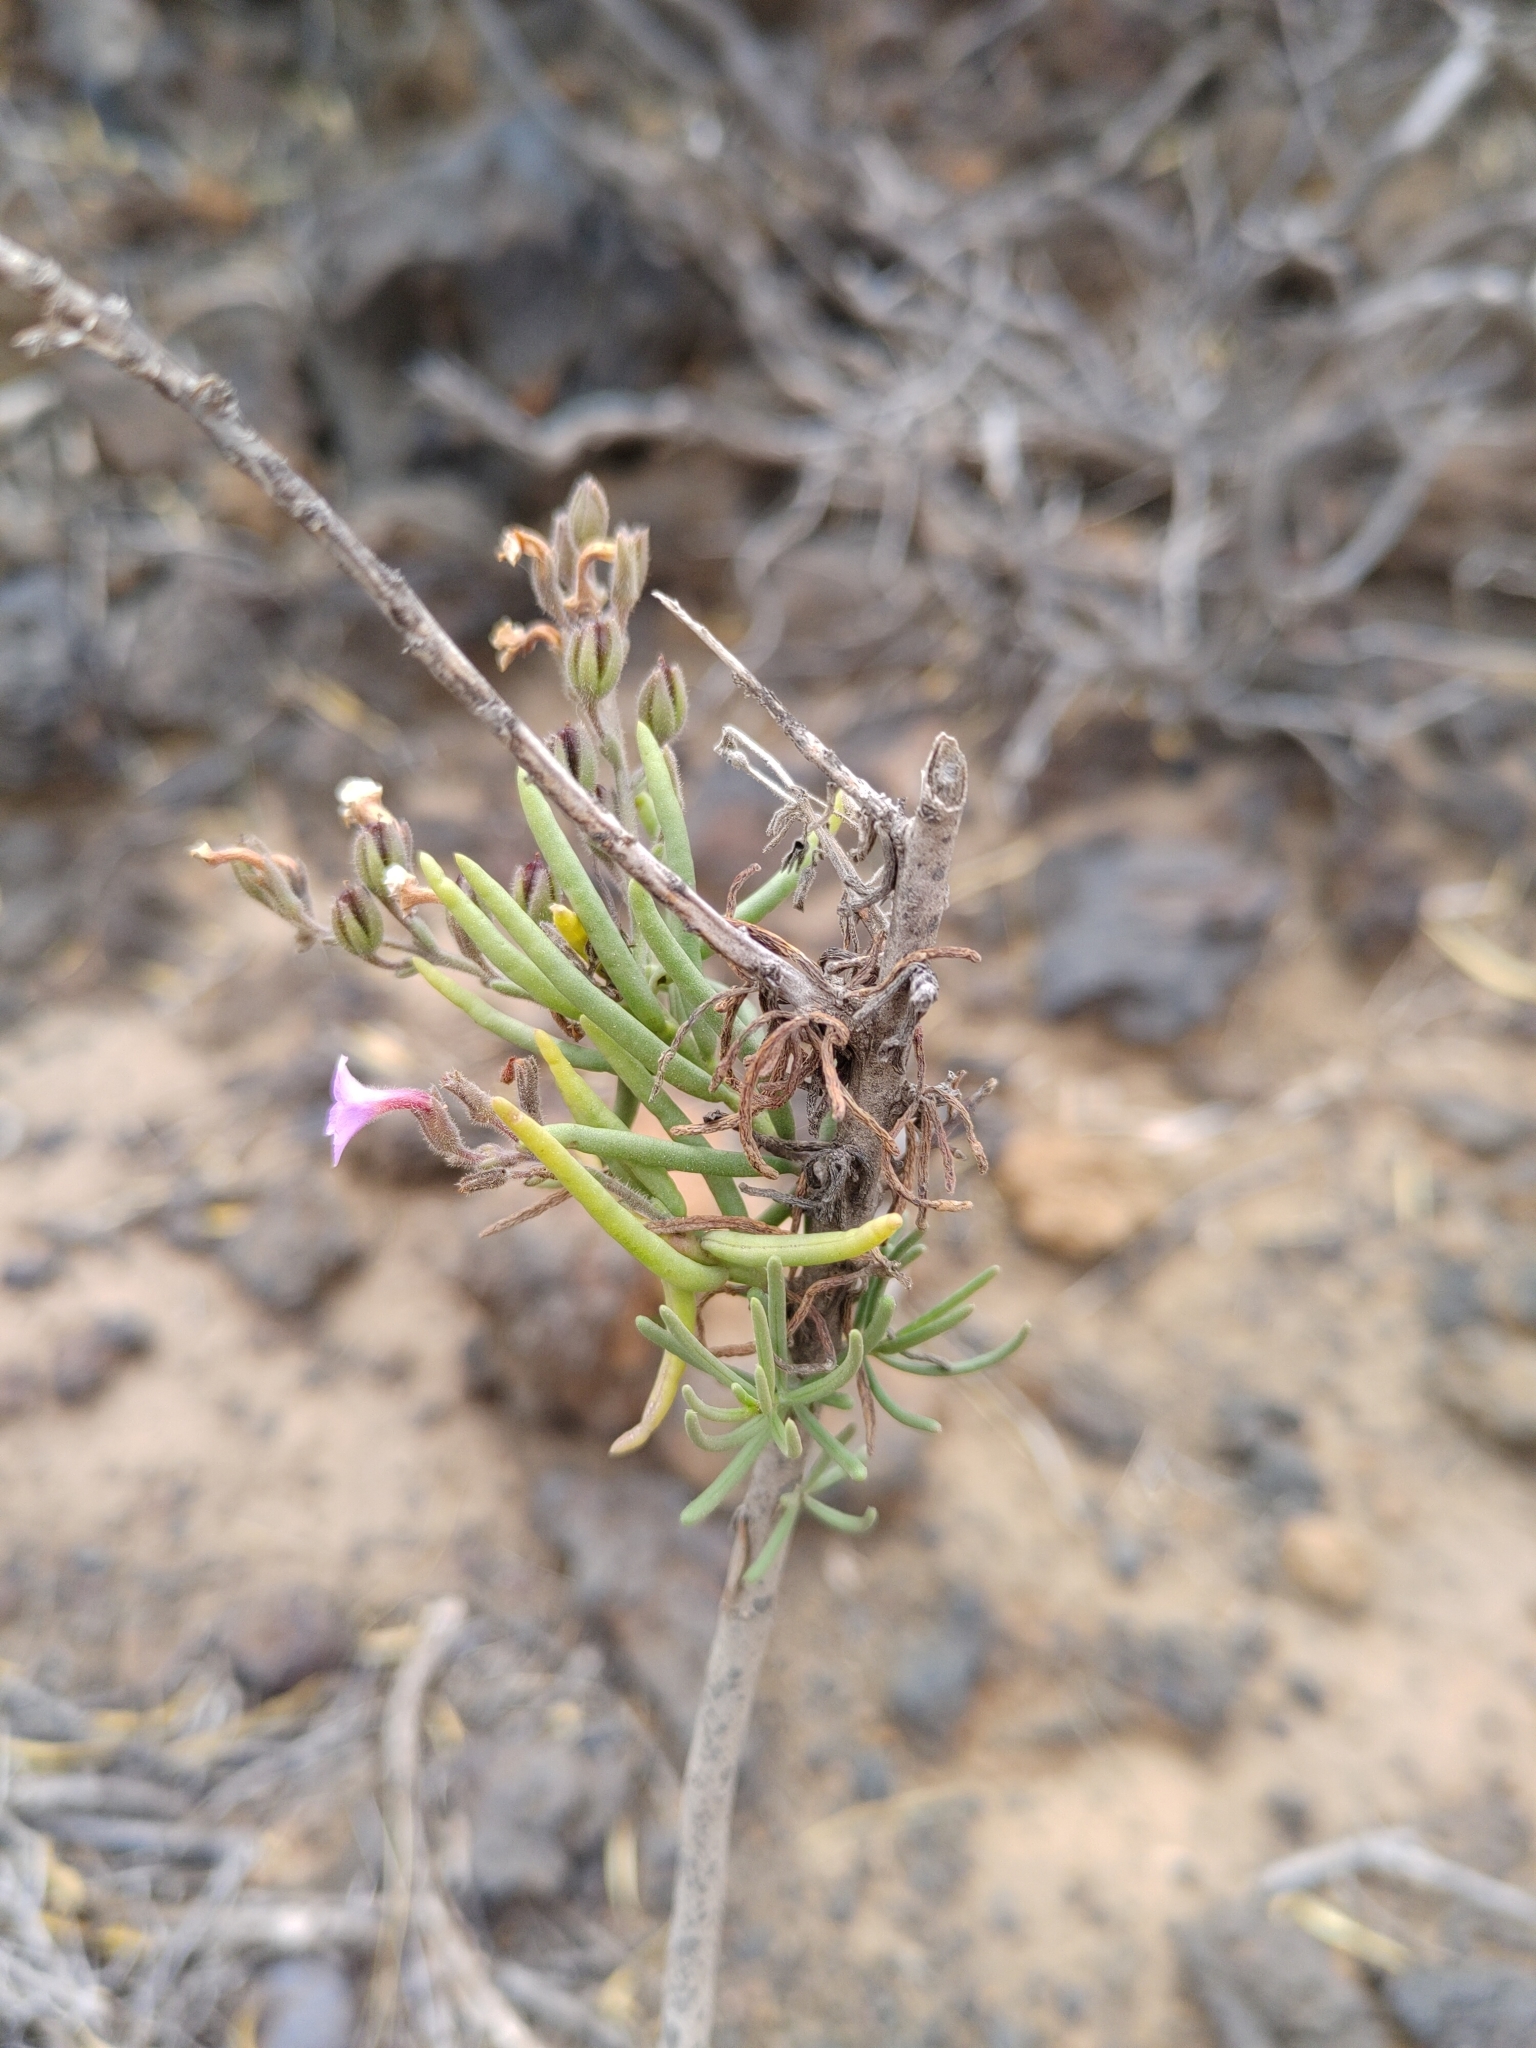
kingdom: Plantae
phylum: Tracheophyta
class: Magnoliopsida
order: Lamiales
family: Plantaginaceae
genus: Campylanthus
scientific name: Campylanthus salsoloides
